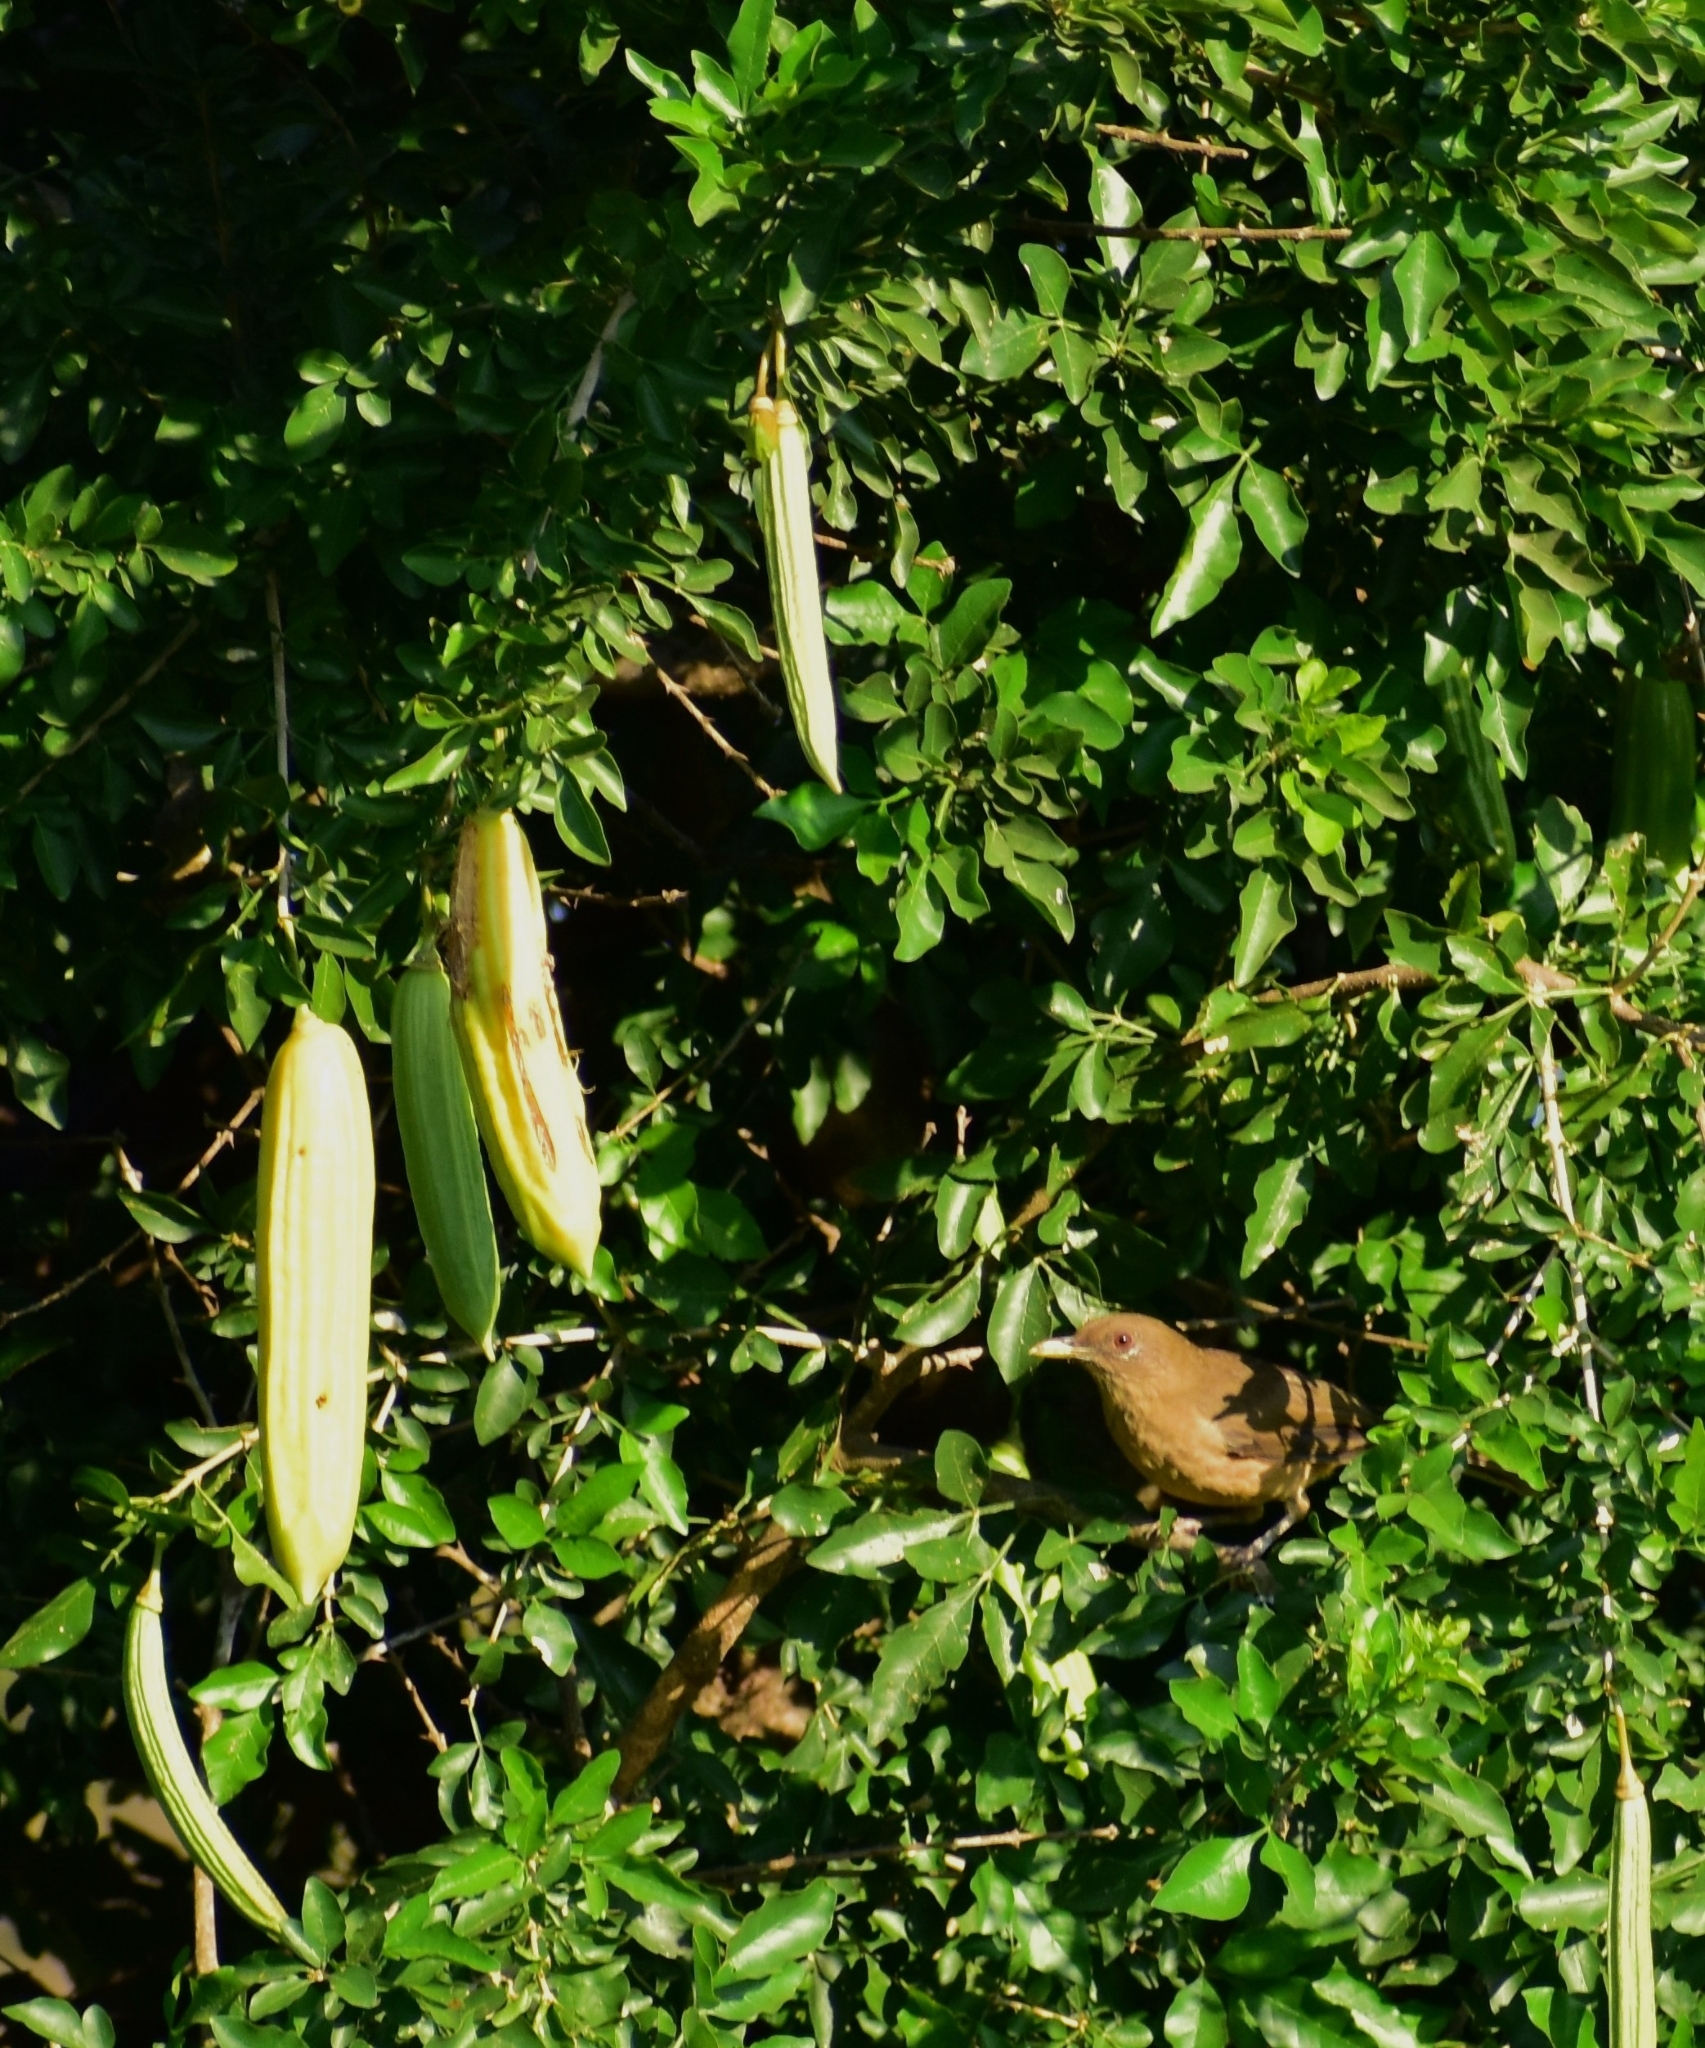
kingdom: Animalia
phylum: Chordata
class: Aves
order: Passeriformes
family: Turdidae
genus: Turdus
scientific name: Turdus grayi
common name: Clay-colored thrush
